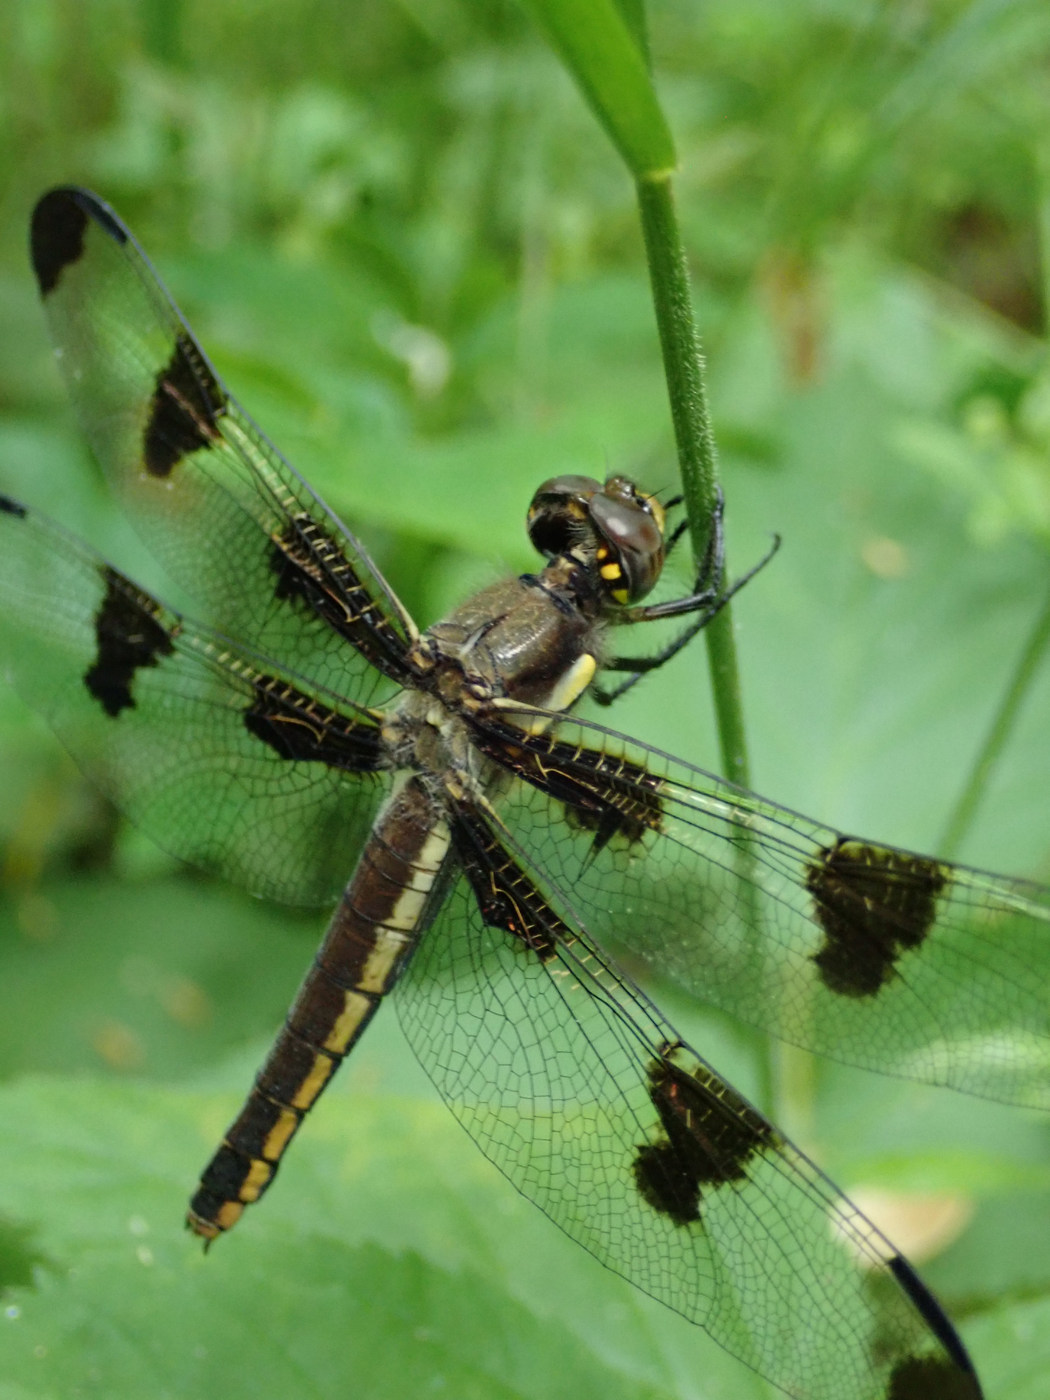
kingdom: Animalia
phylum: Arthropoda
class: Insecta
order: Odonata
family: Libellulidae
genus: Libellula
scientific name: Libellula pulchella
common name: Twelve-spotted skimmer
